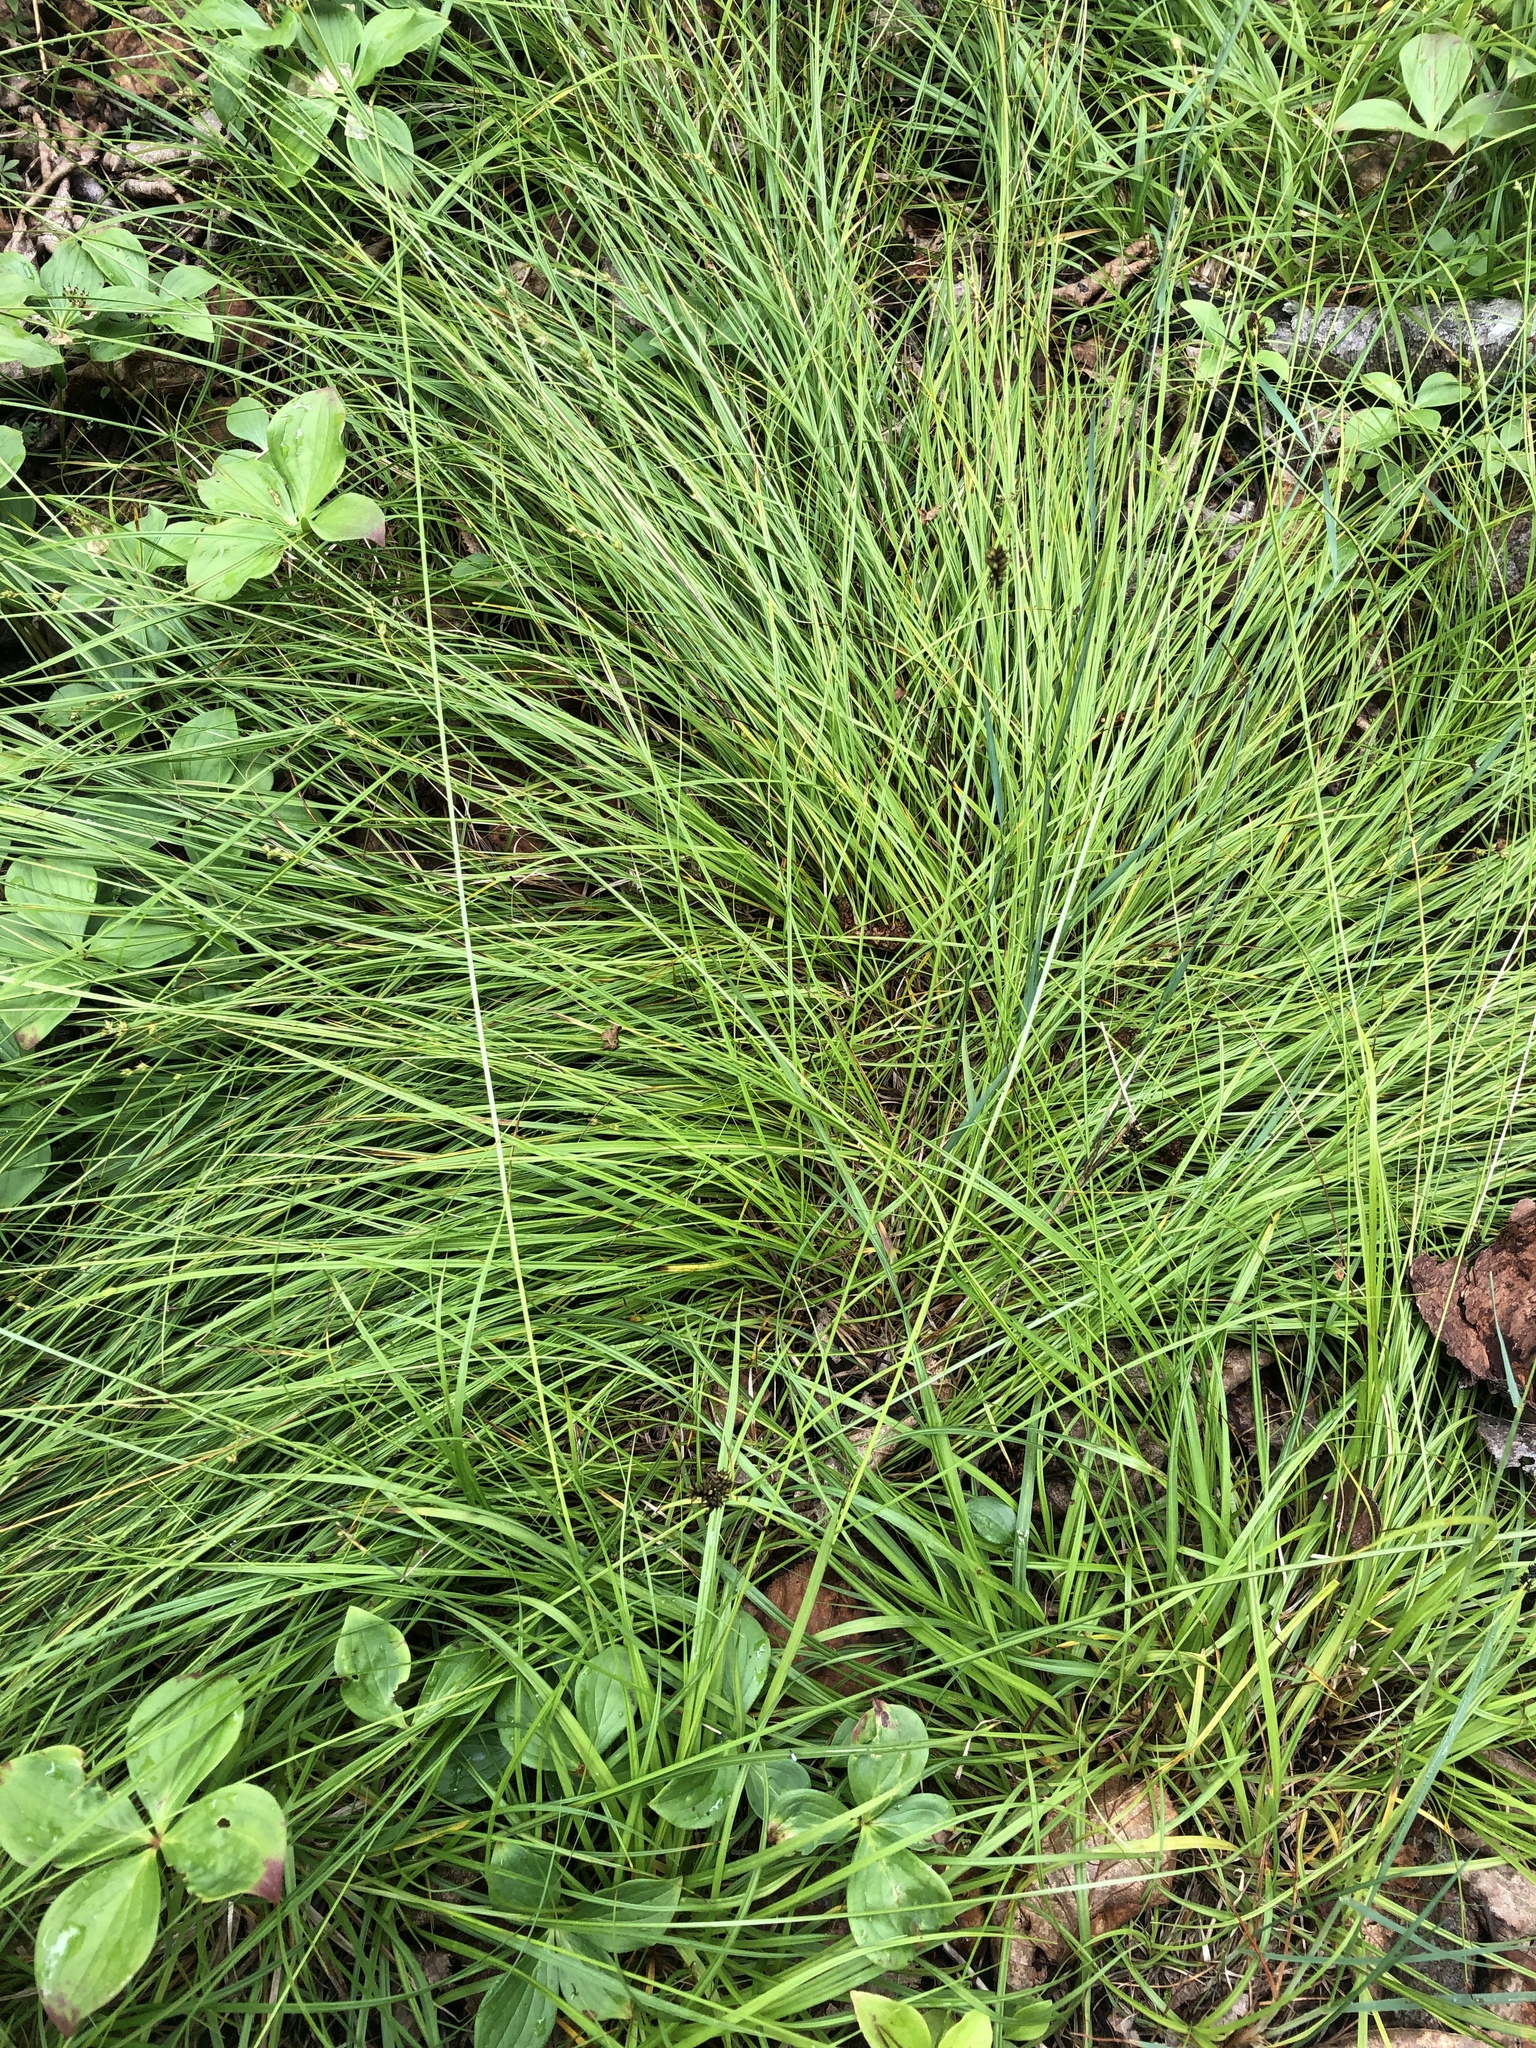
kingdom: Plantae
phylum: Tracheophyta
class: Liliopsida
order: Poales
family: Cyperaceae
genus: Carex
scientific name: Carex media
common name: Alpine sedge
